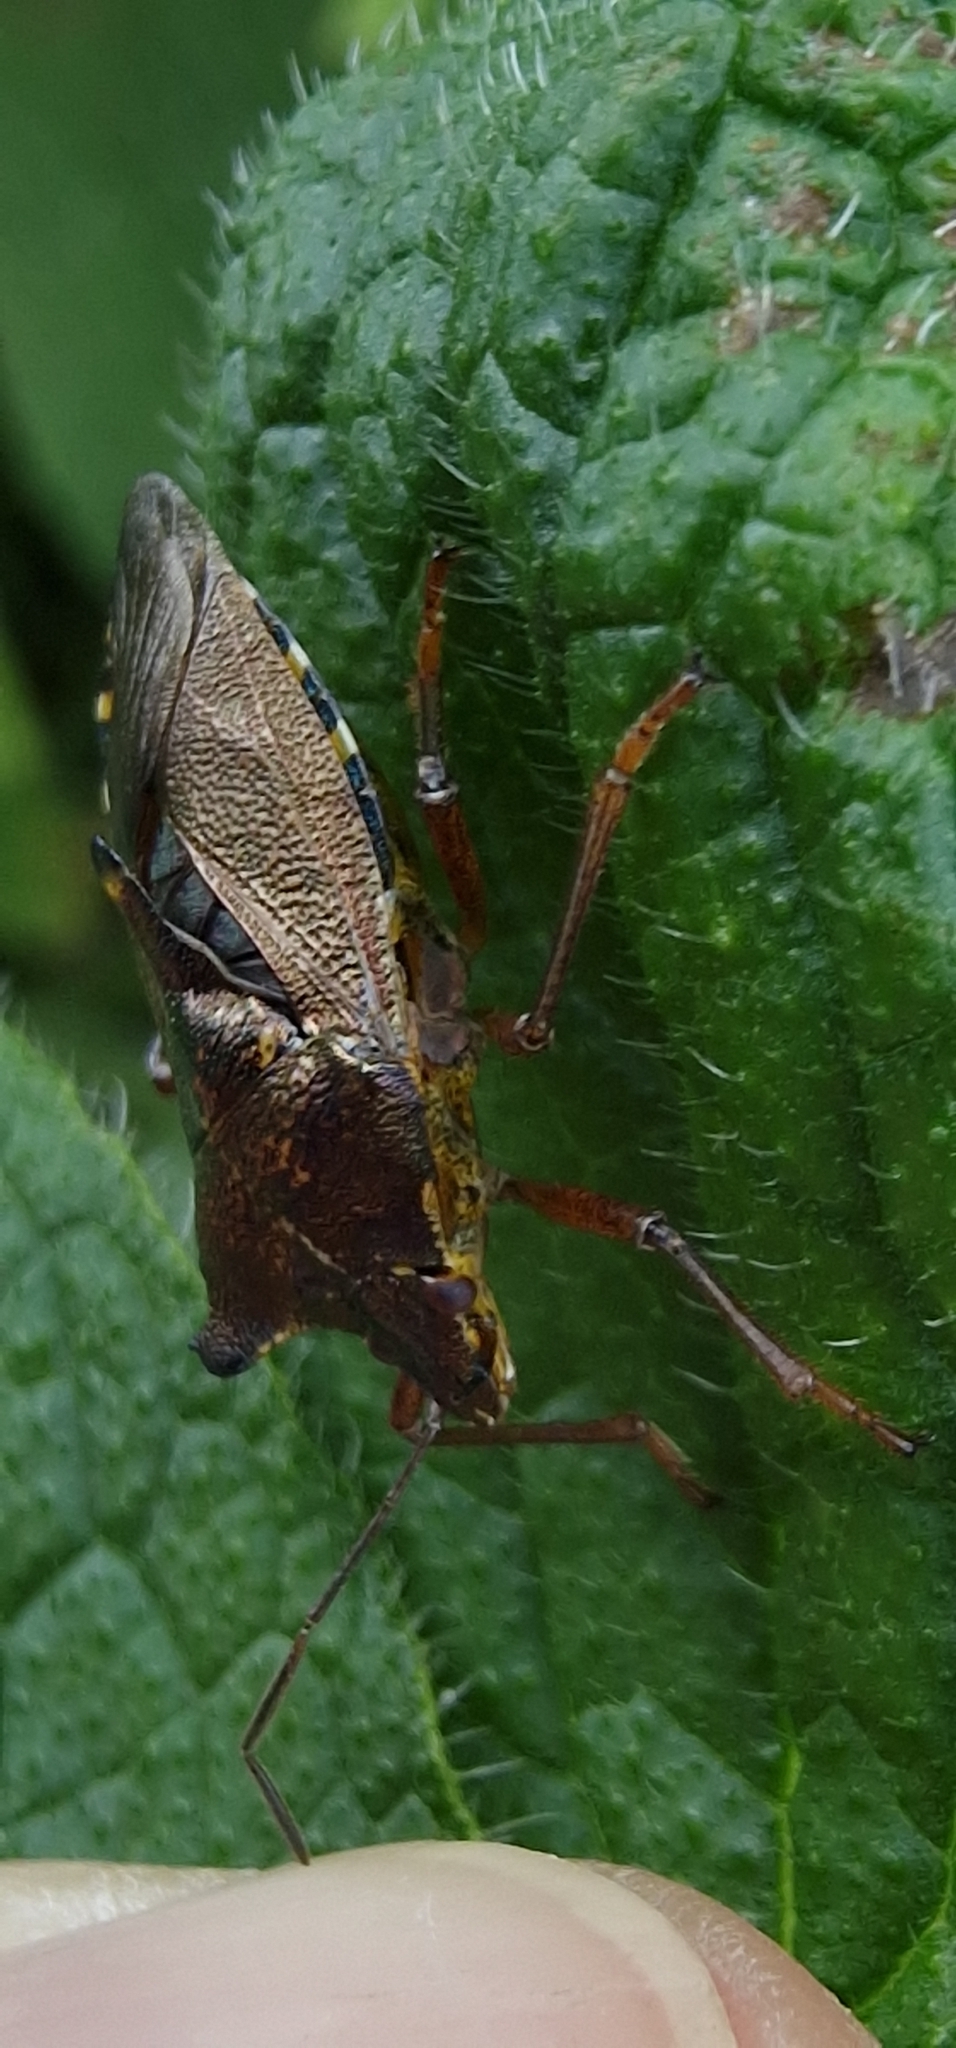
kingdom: Animalia
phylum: Arthropoda
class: Insecta
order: Hemiptera
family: Pentatomidae
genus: Pentatoma
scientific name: Pentatoma rufipes
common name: Forest bug
